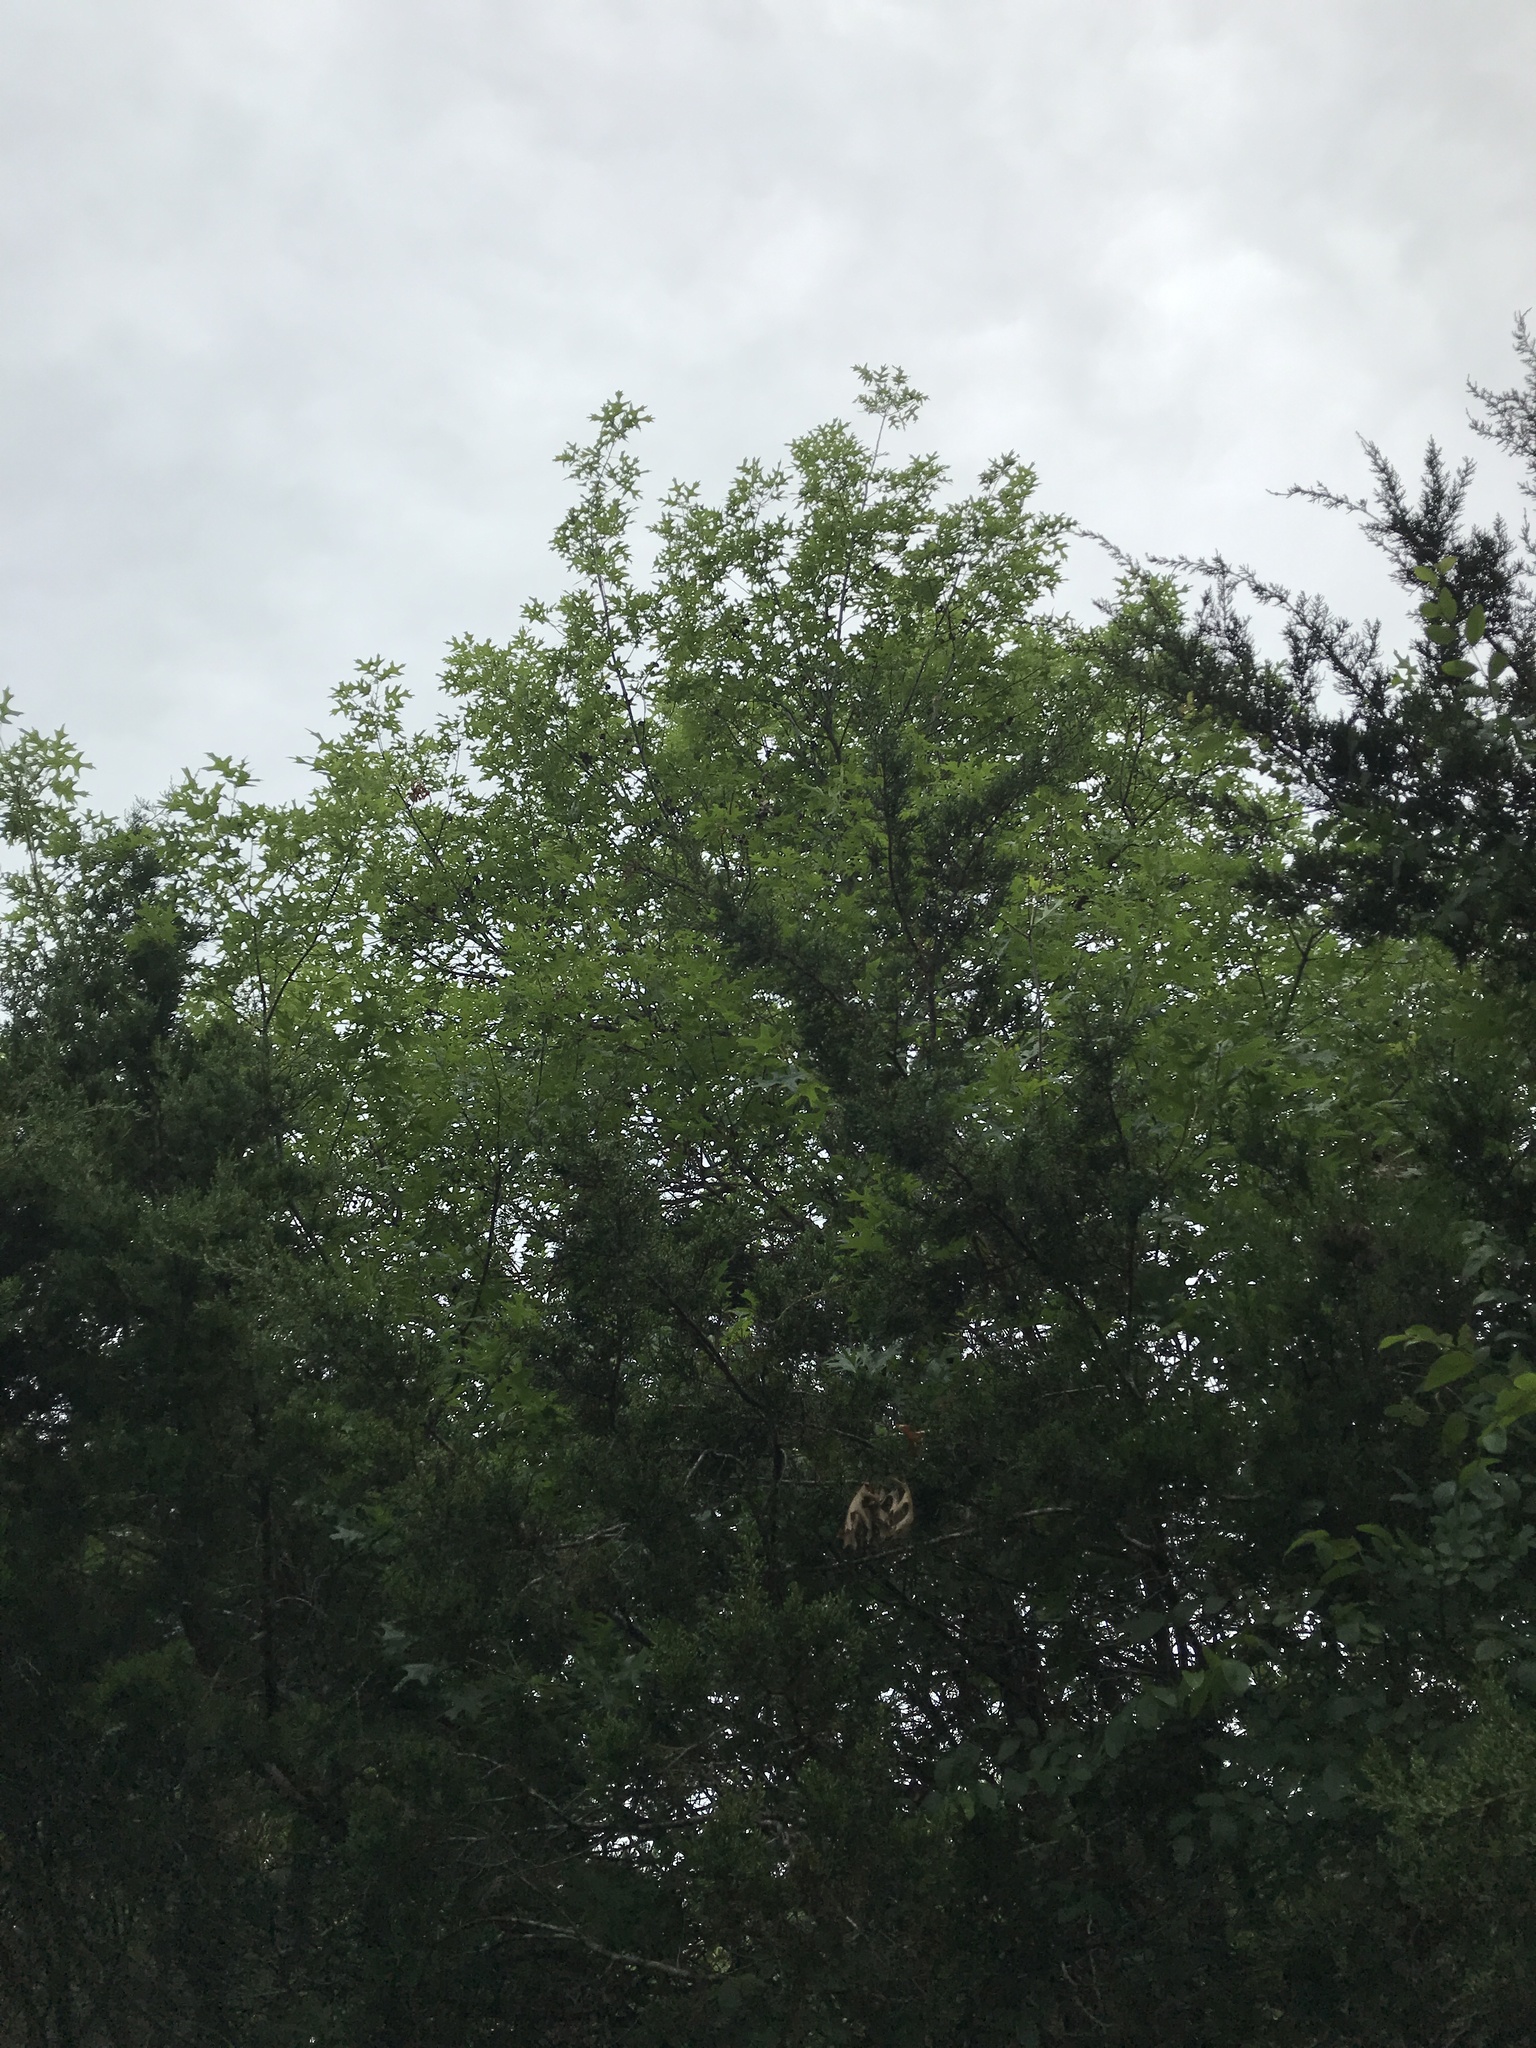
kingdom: Plantae
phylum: Tracheophyta
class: Magnoliopsida
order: Fagales
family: Fagaceae
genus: Quercus
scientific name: Quercus buckleyi
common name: Buckley oak
